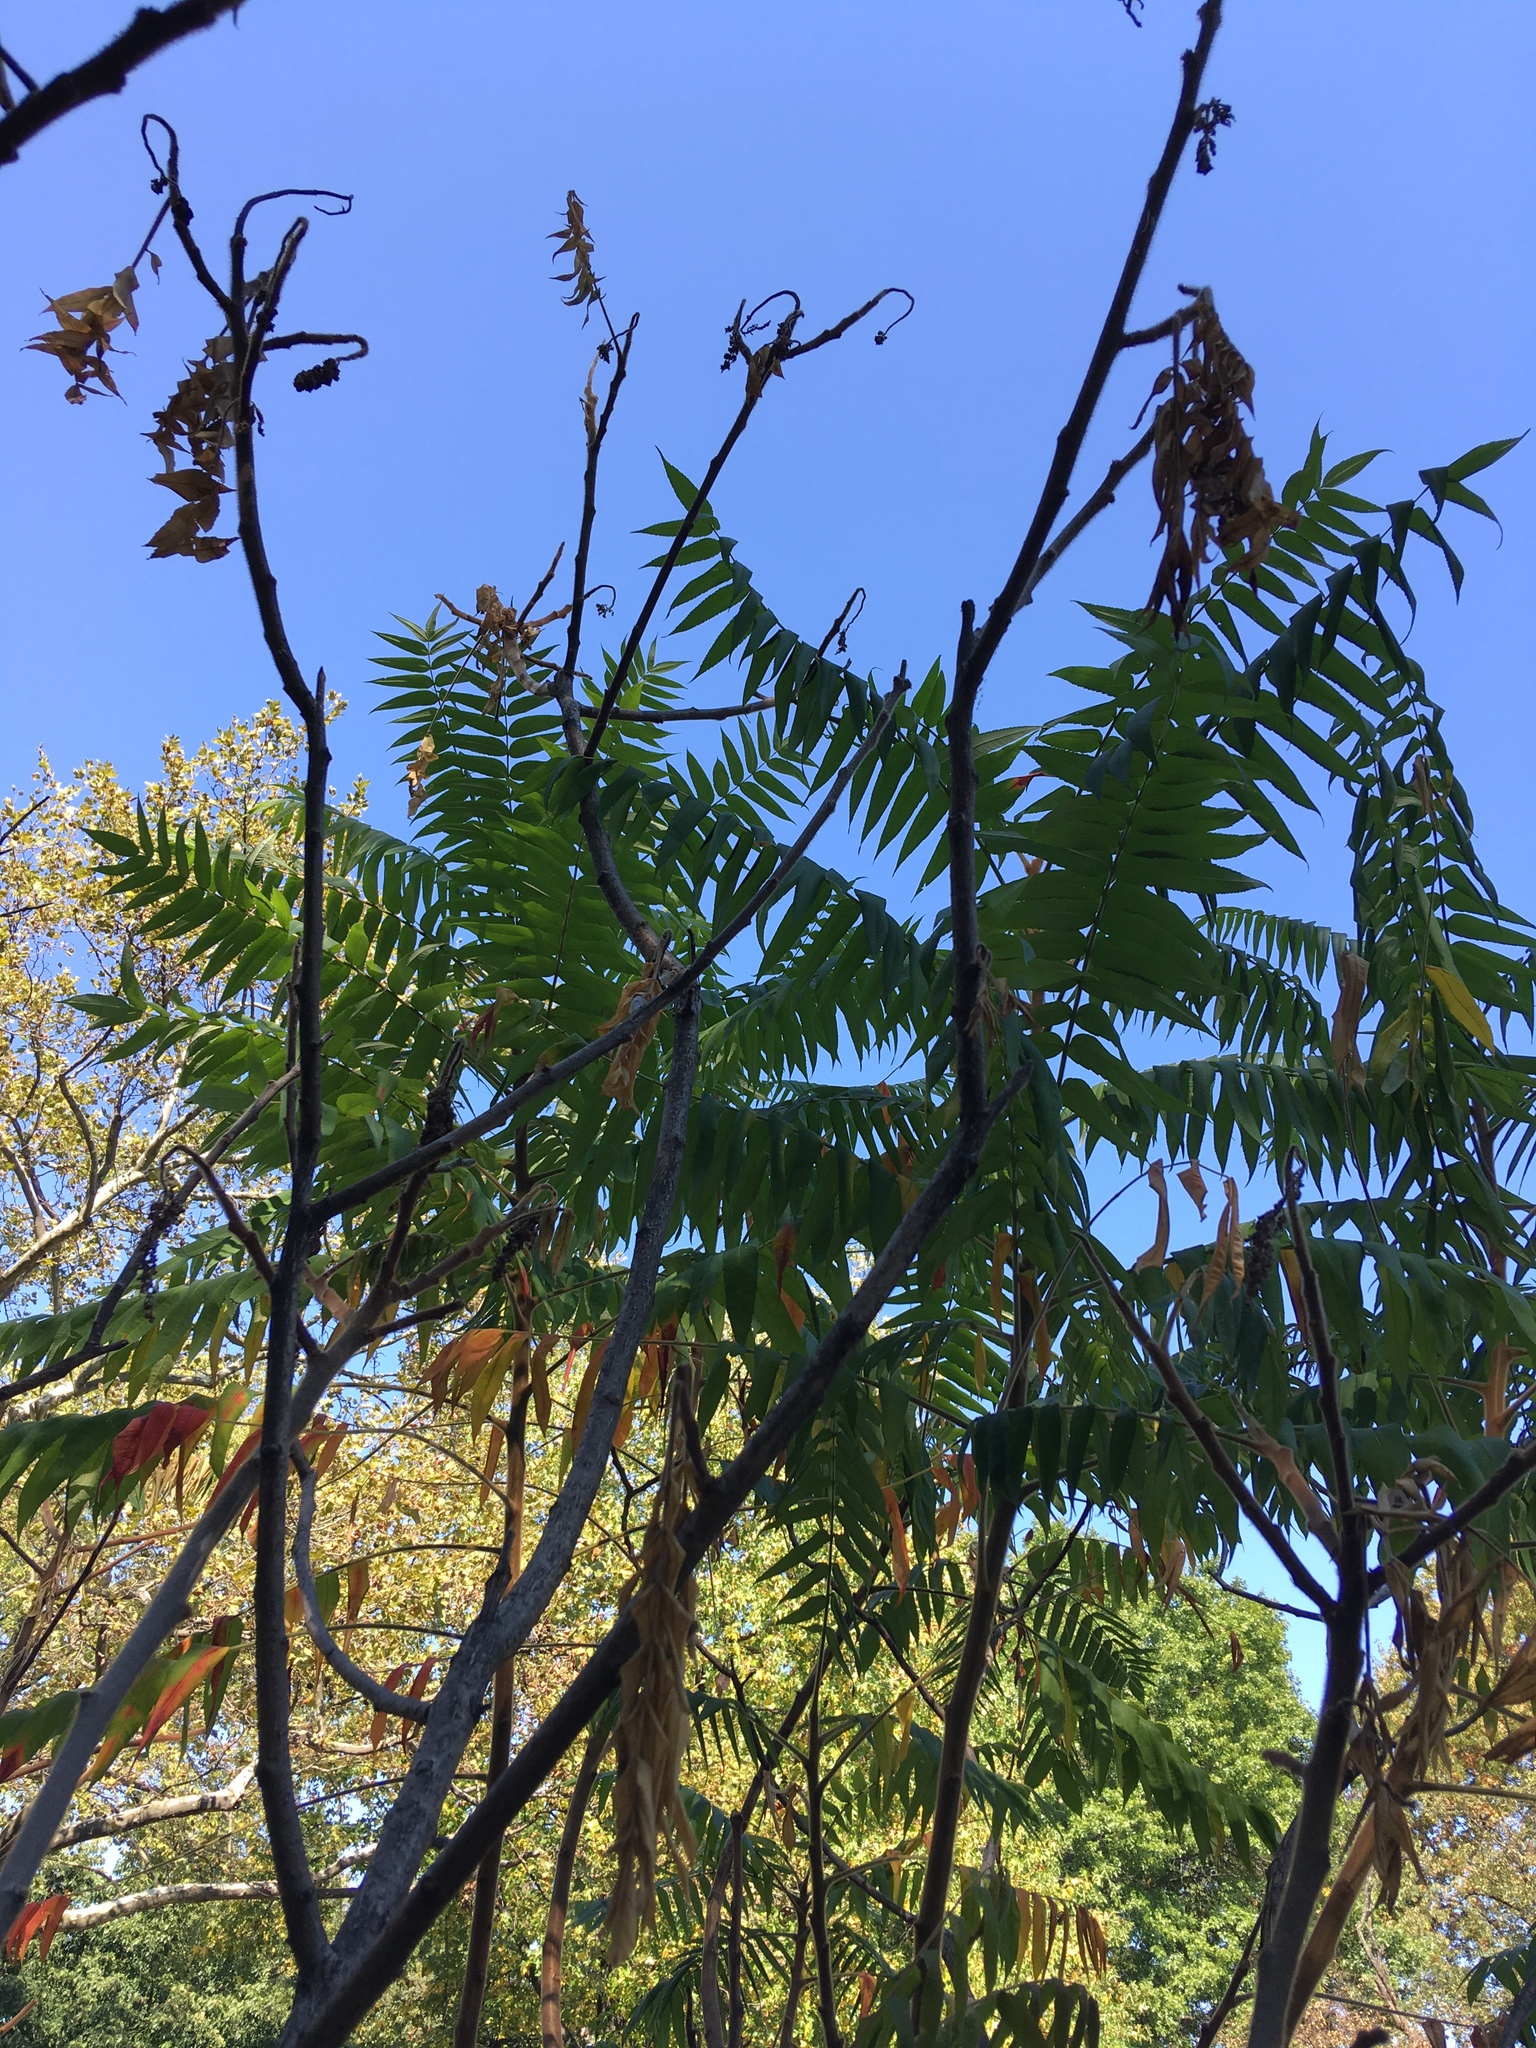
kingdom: Plantae
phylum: Tracheophyta
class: Magnoliopsida
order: Sapindales
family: Anacardiaceae
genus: Rhus
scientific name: Rhus typhina
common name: Staghorn sumac
